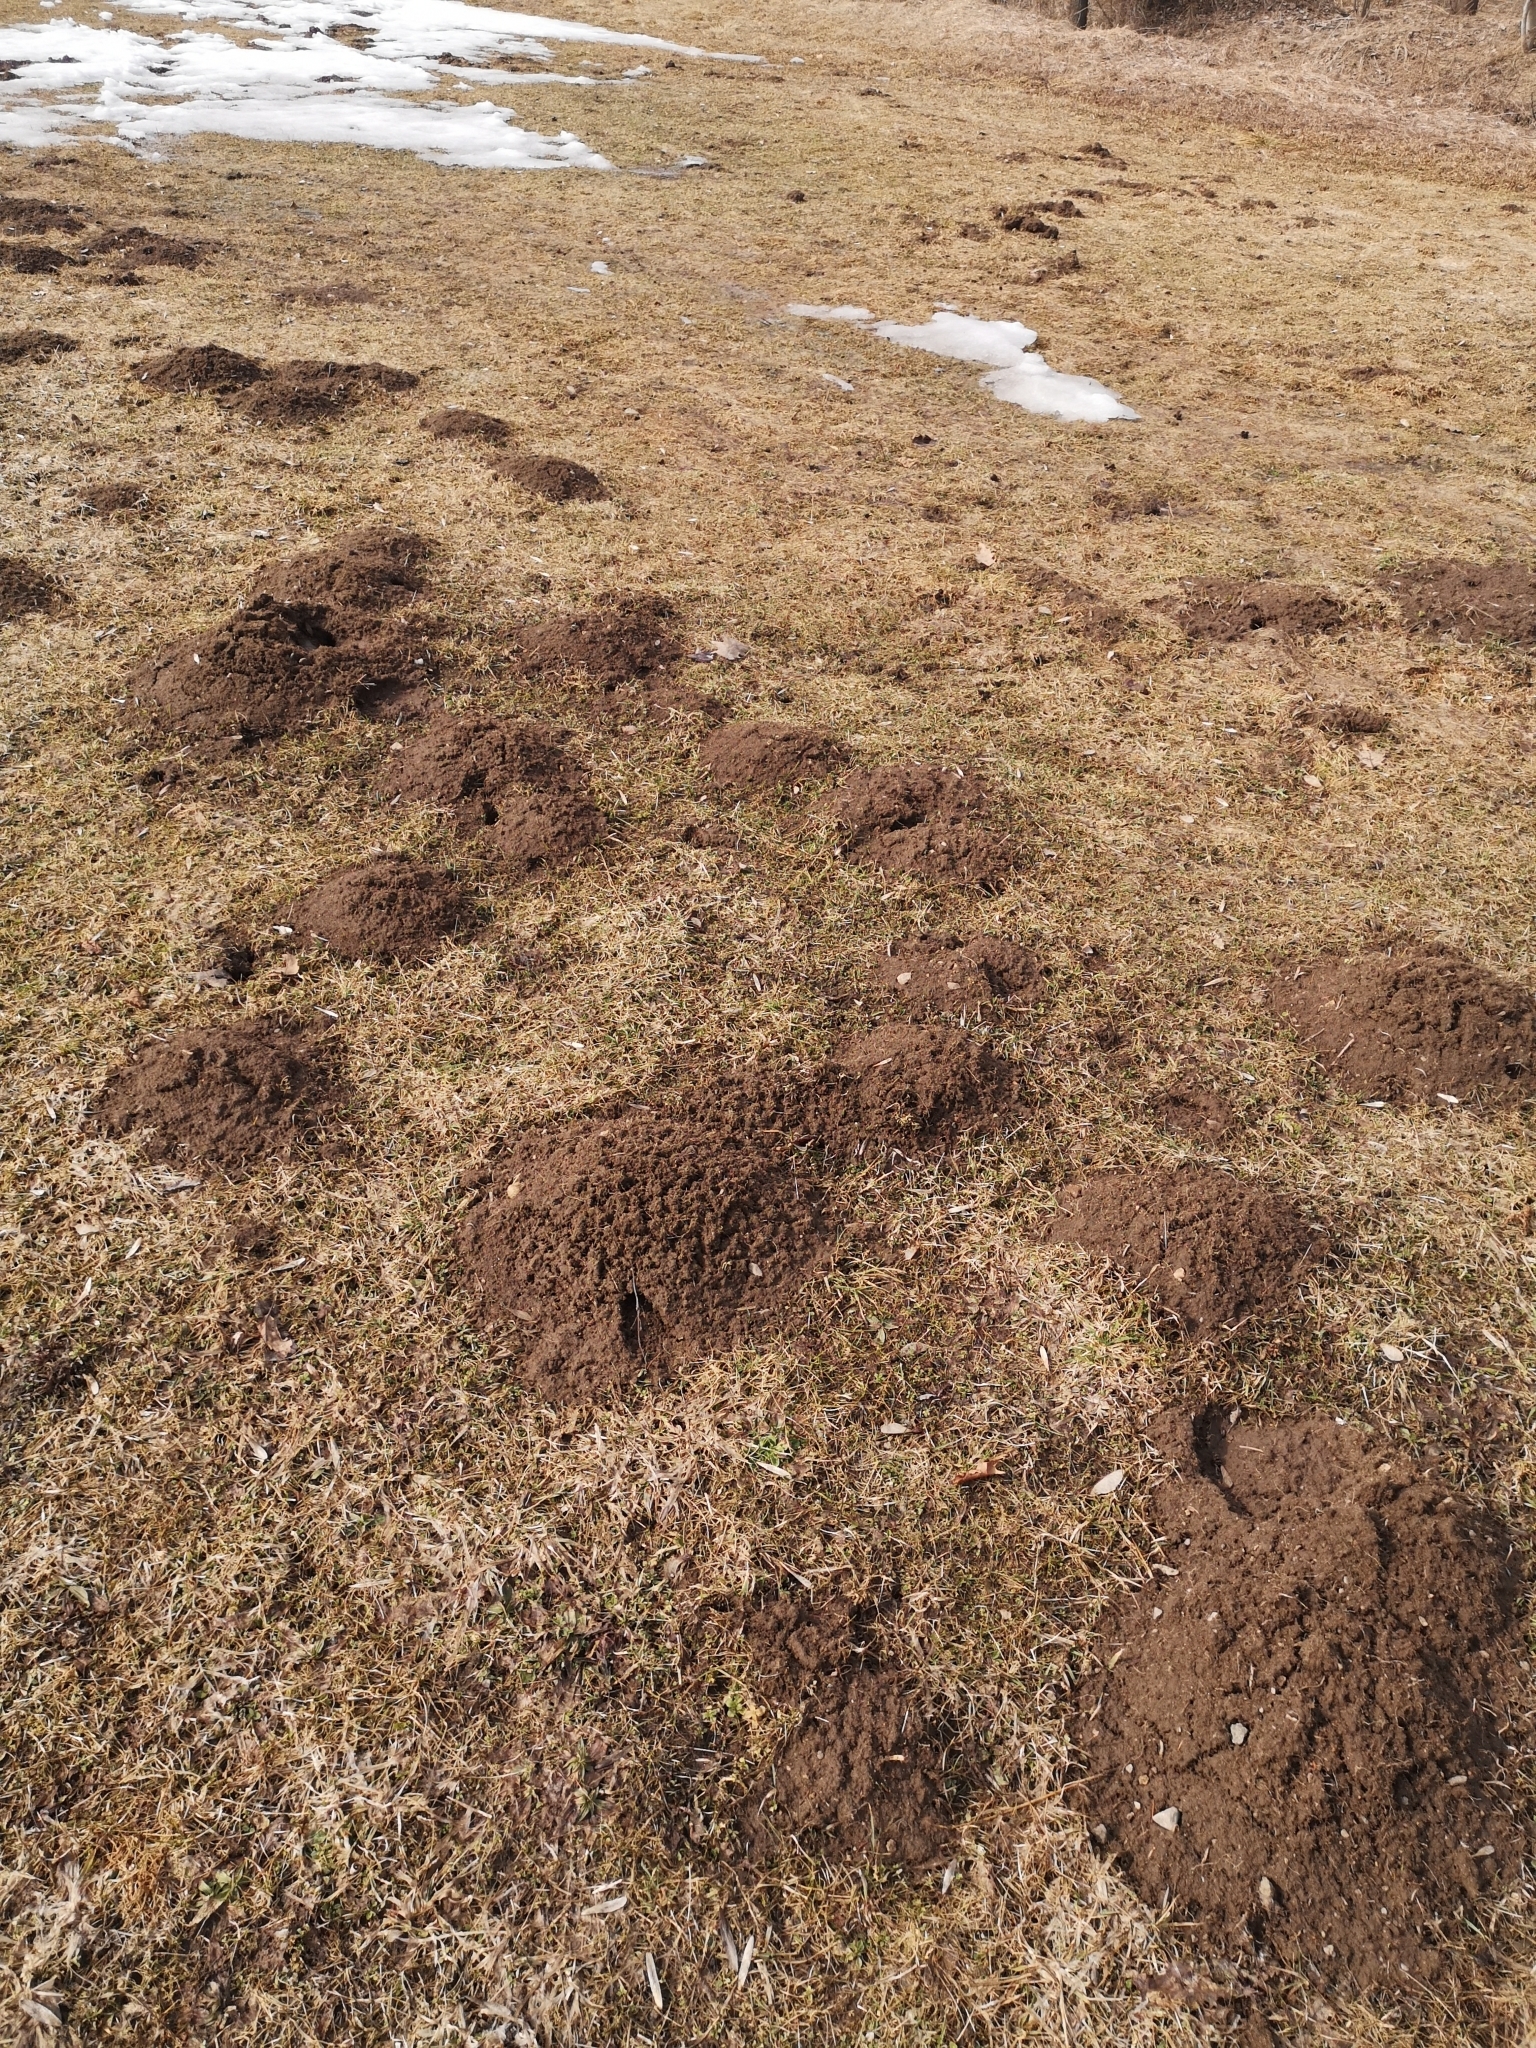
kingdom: Animalia
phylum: Chordata
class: Mammalia
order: Soricomorpha
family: Talpidae
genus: Talpa
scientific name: Talpa europaea
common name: European mole
